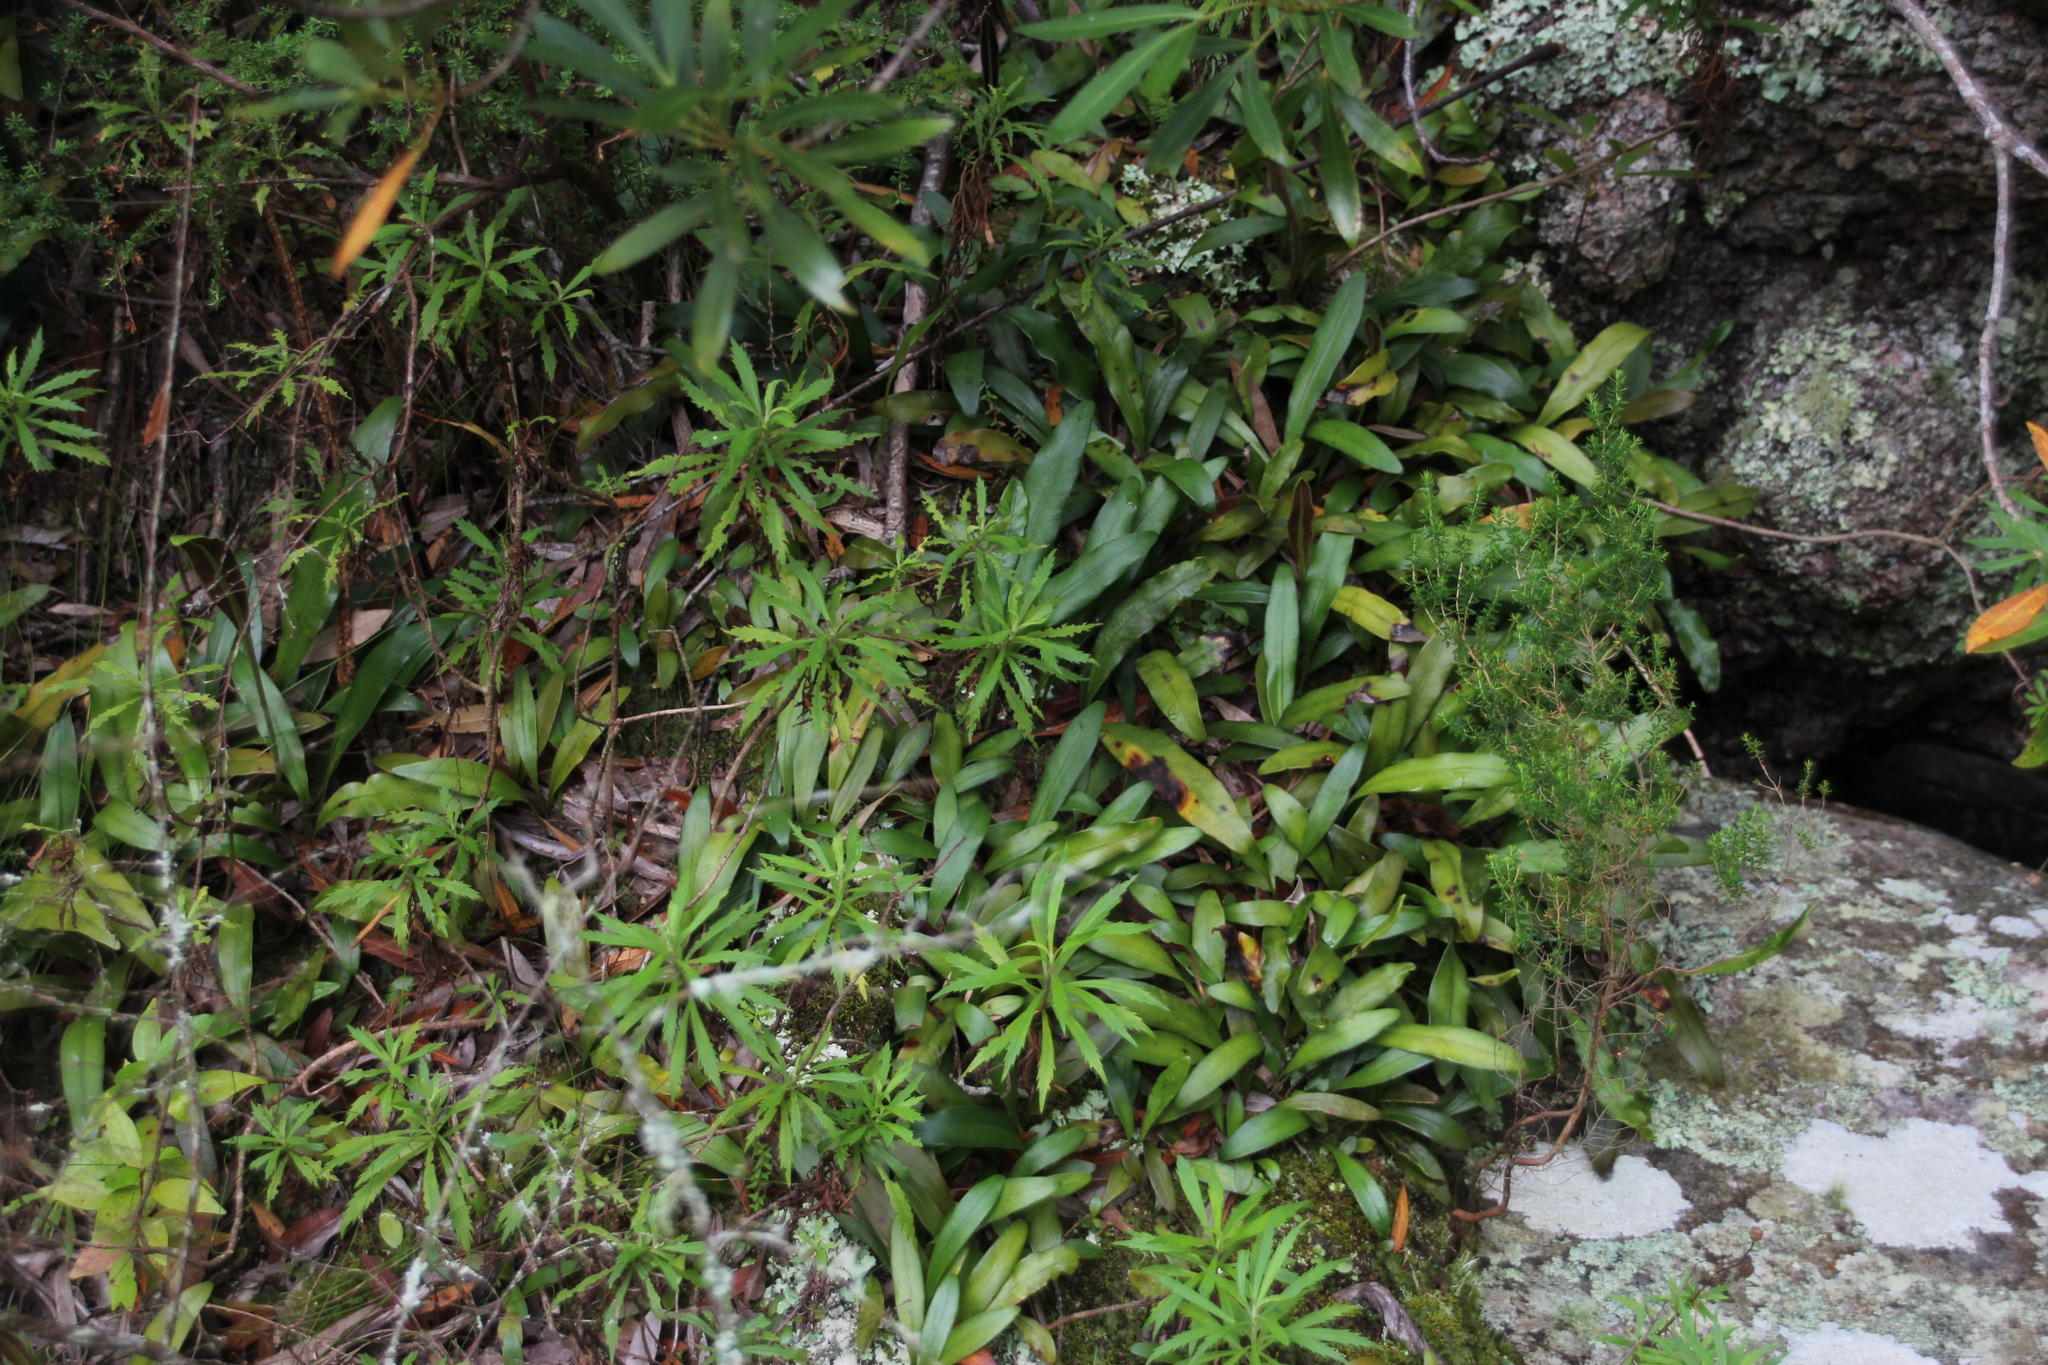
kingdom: Plantae
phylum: Tracheophyta
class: Polypodiopsida
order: Polypodiales
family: Dryopteridaceae
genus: Elaphoglossum
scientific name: Elaphoglossum angustatum
